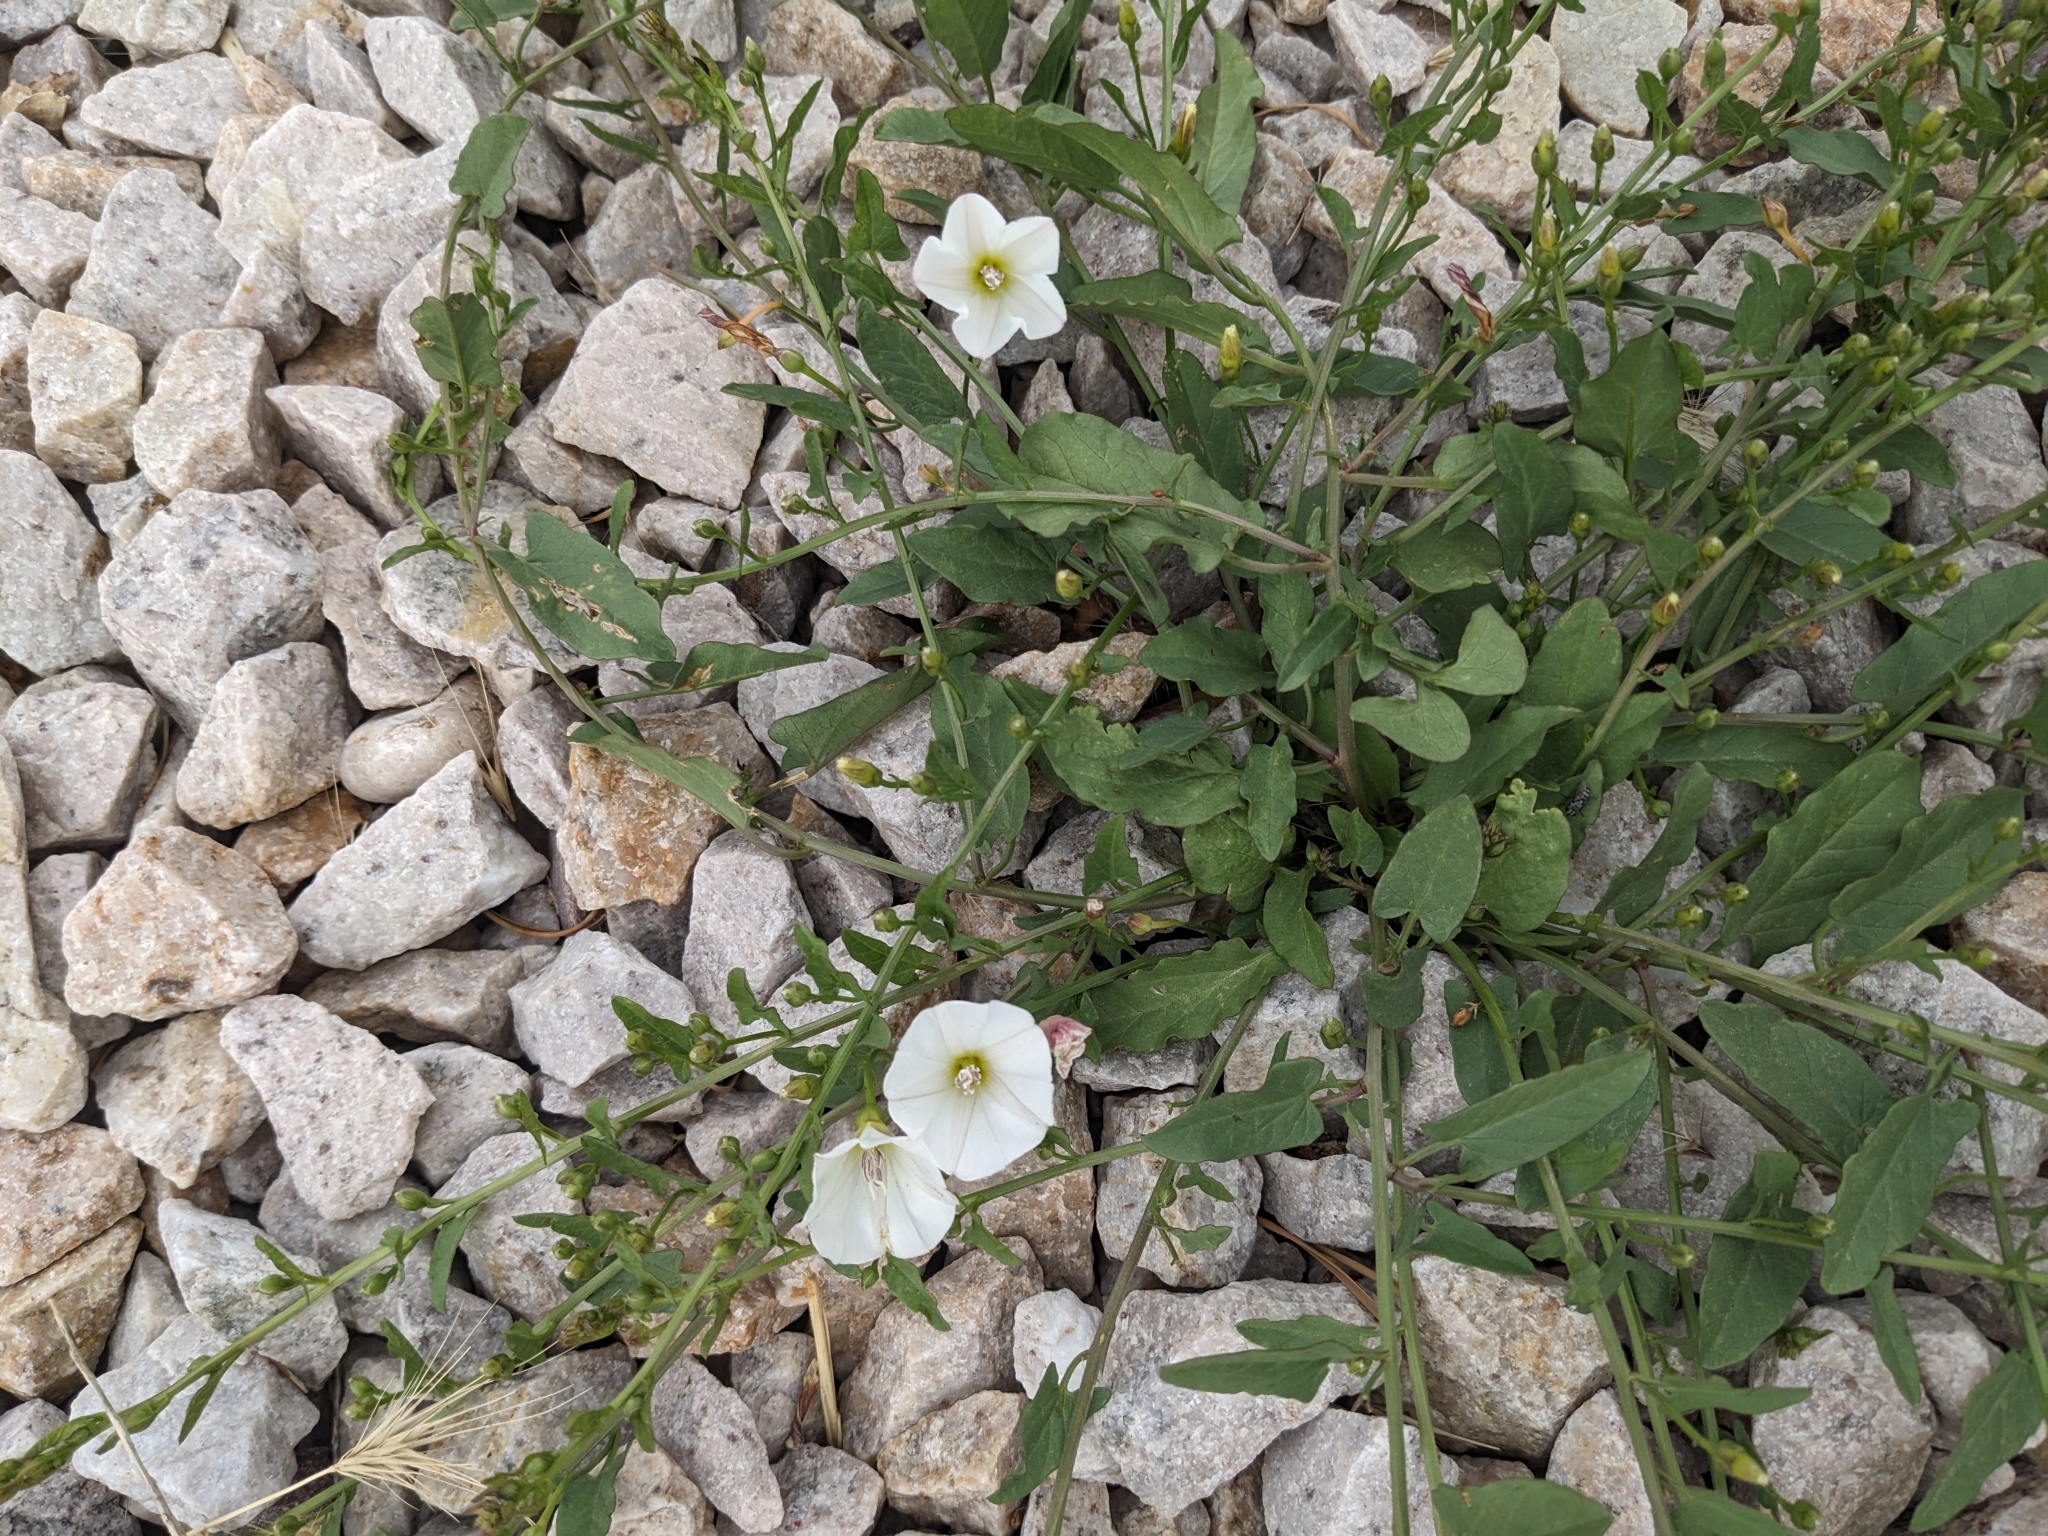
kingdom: Plantae
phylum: Tracheophyta
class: Magnoliopsida
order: Solanales
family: Convolvulaceae
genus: Convolvulus
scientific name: Convolvulus arvensis
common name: Field bindweed
